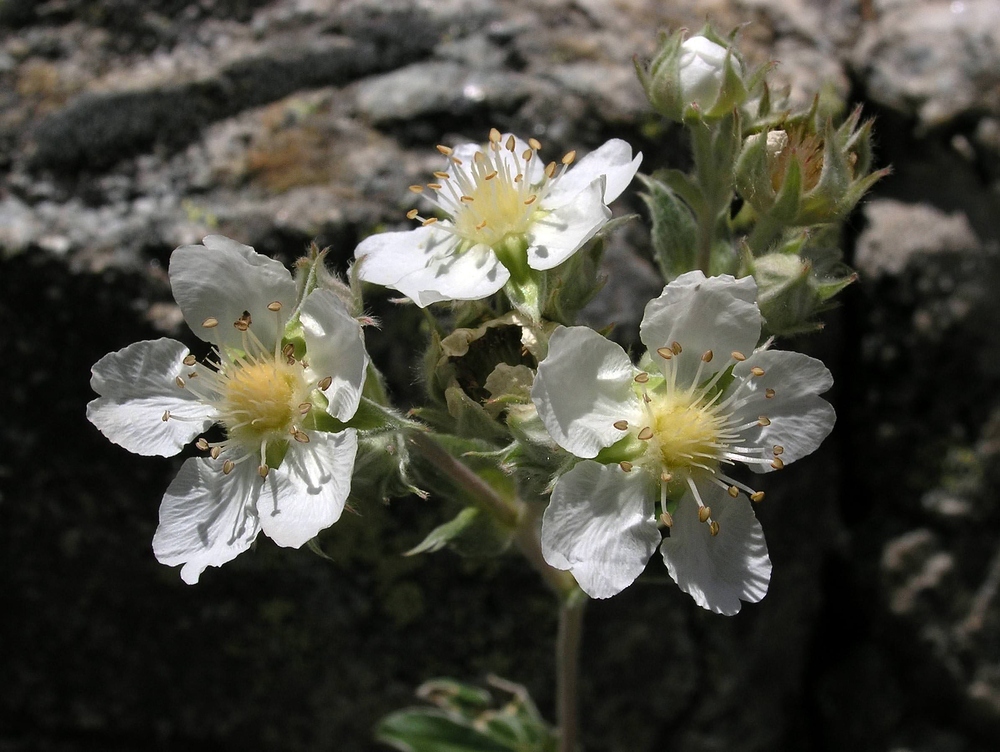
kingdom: Plantae
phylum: Tracheophyta
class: Magnoliopsida
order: Rosales
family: Rosaceae
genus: Potentilla
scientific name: Potentilla alchimilloides
